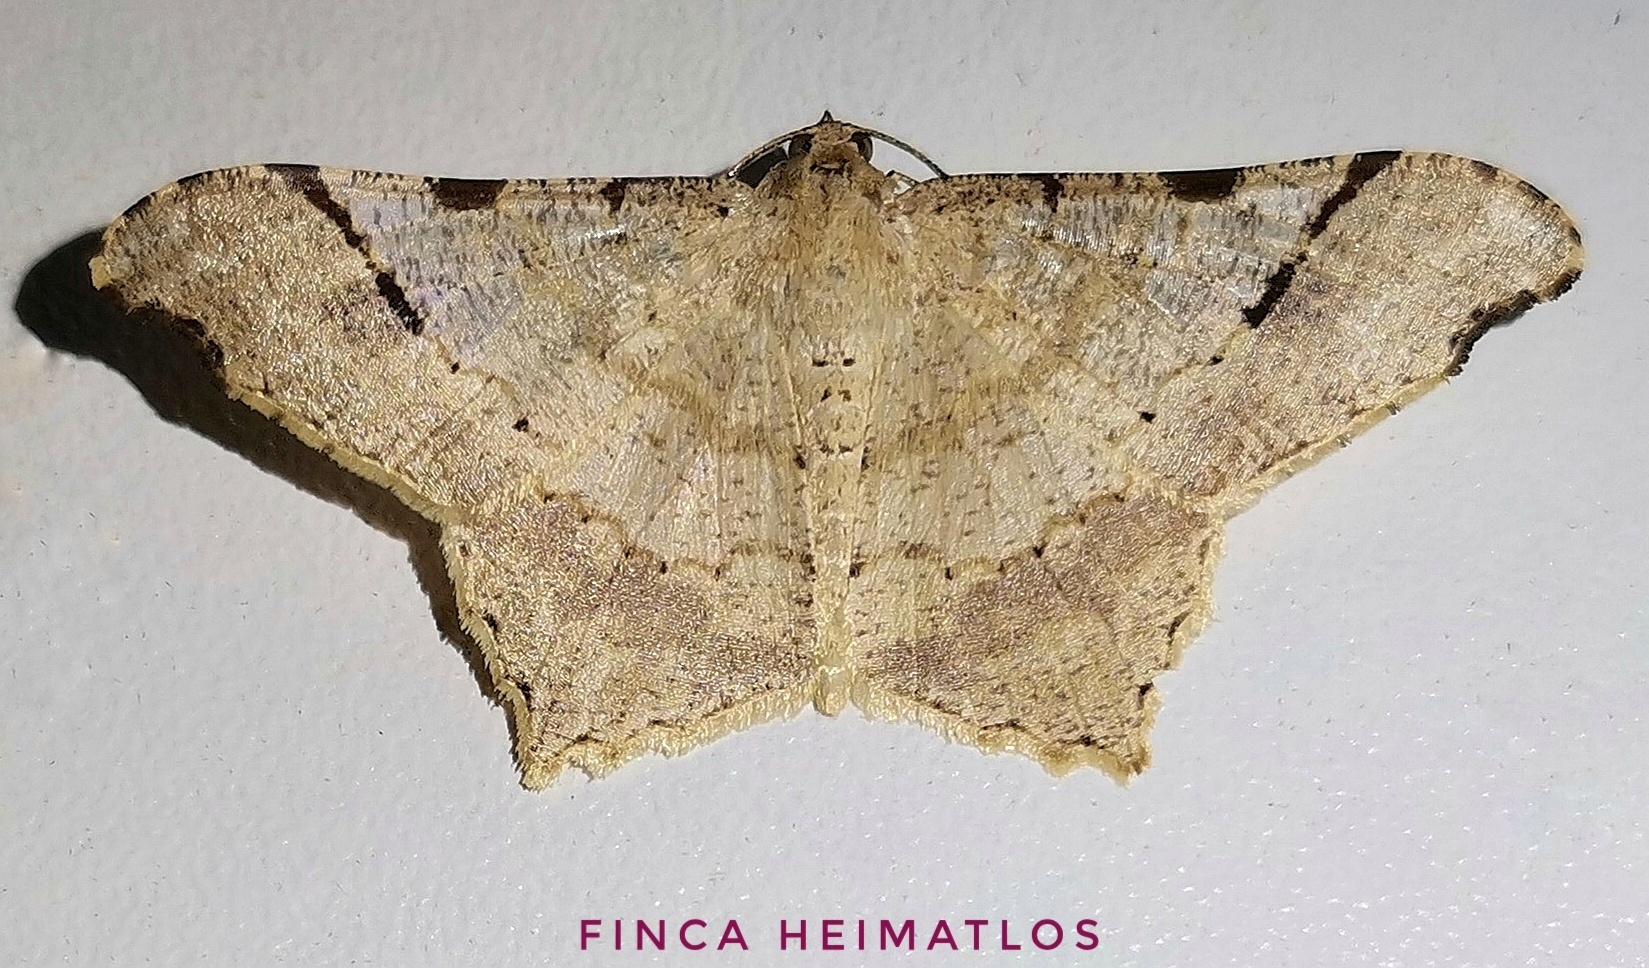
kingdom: Animalia
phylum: Arthropoda
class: Insecta
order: Lepidoptera
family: Geometridae
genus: Macaria
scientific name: Macaria achetata
